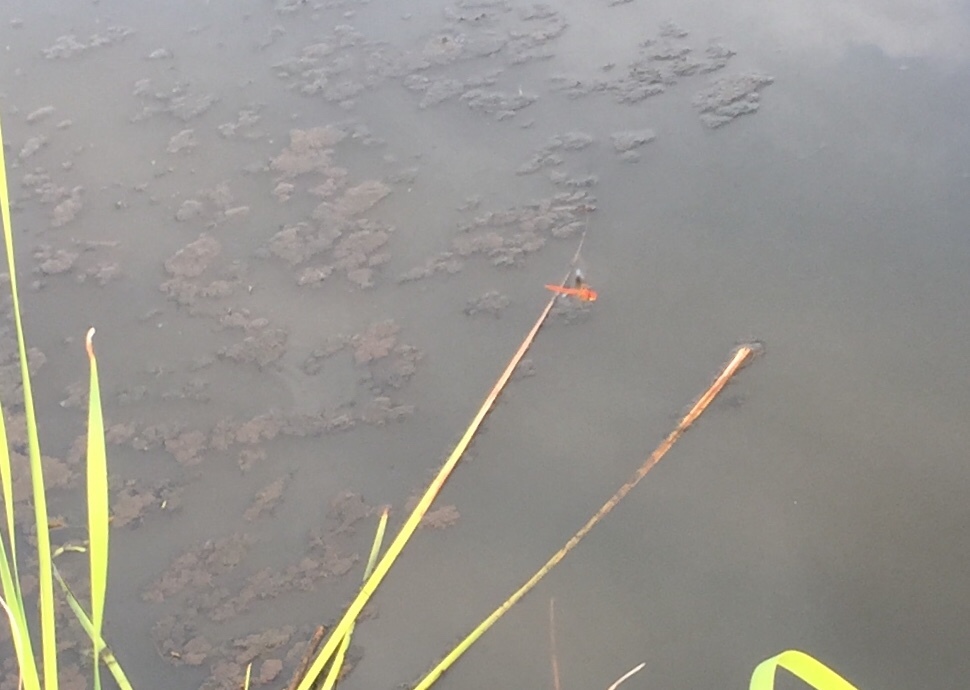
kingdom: Animalia
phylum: Arthropoda
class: Insecta
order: Odonata
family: Libellulidae
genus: Tholymis
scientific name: Tholymis tillarga
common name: Coral-tailed cloud wing
